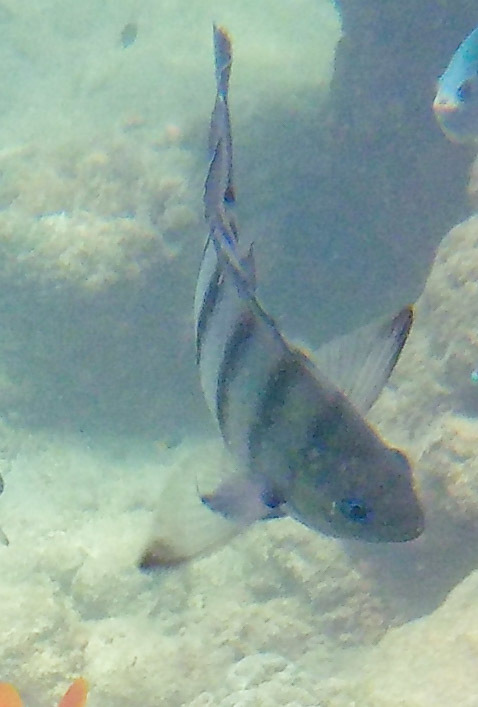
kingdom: Animalia
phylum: Chordata
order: Perciformes
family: Pomacentridae
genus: Abudefduf
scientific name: Abudefduf bengalensis
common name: Bengal sergeant
